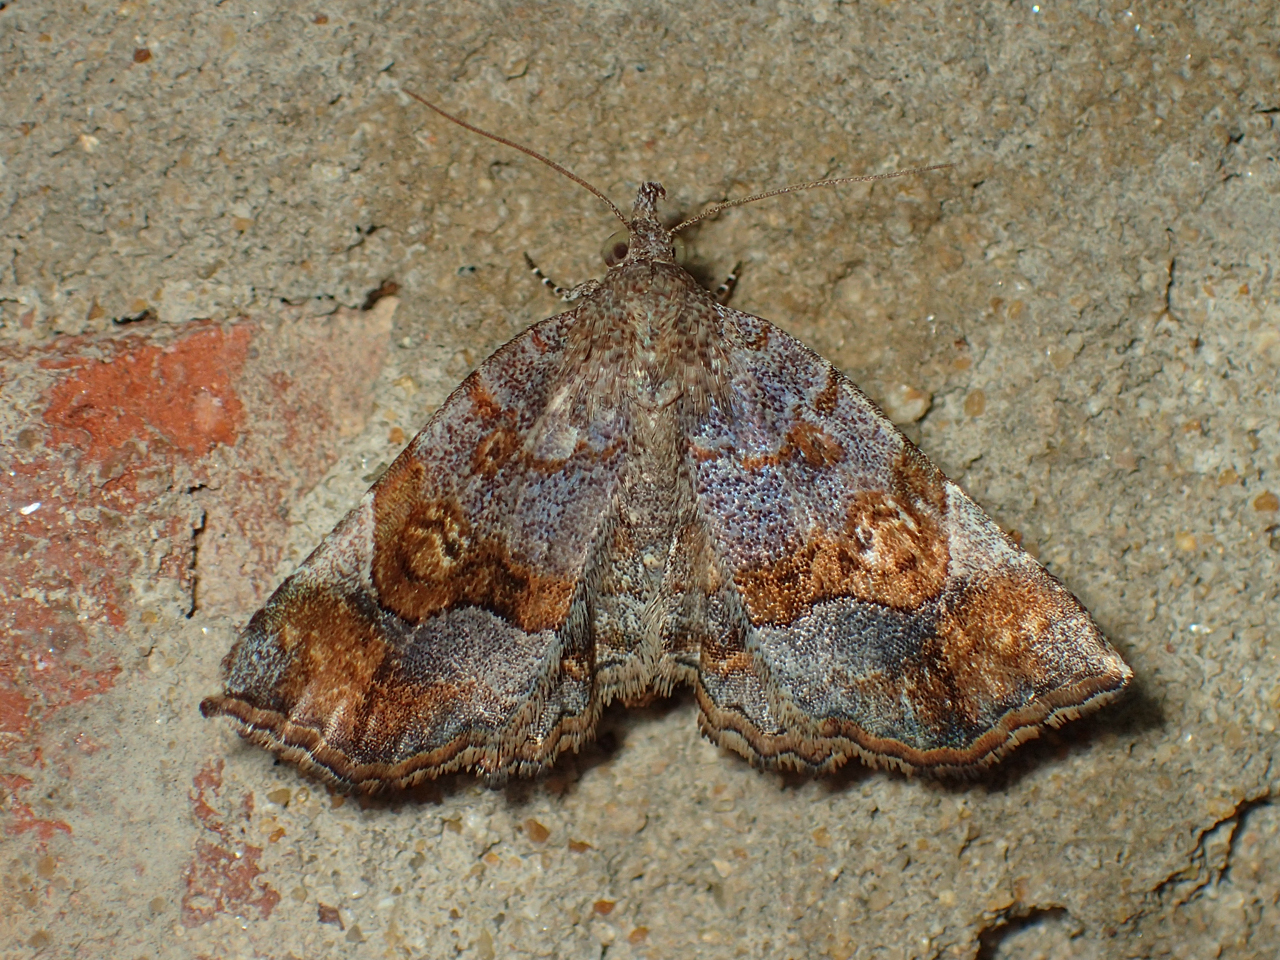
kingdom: Animalia
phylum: Arthropoda
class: Insecta
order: Lepidoptera
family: Erebidae
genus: Pangrapta
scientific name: Pangrapta decoralis
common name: Decorated owlet
